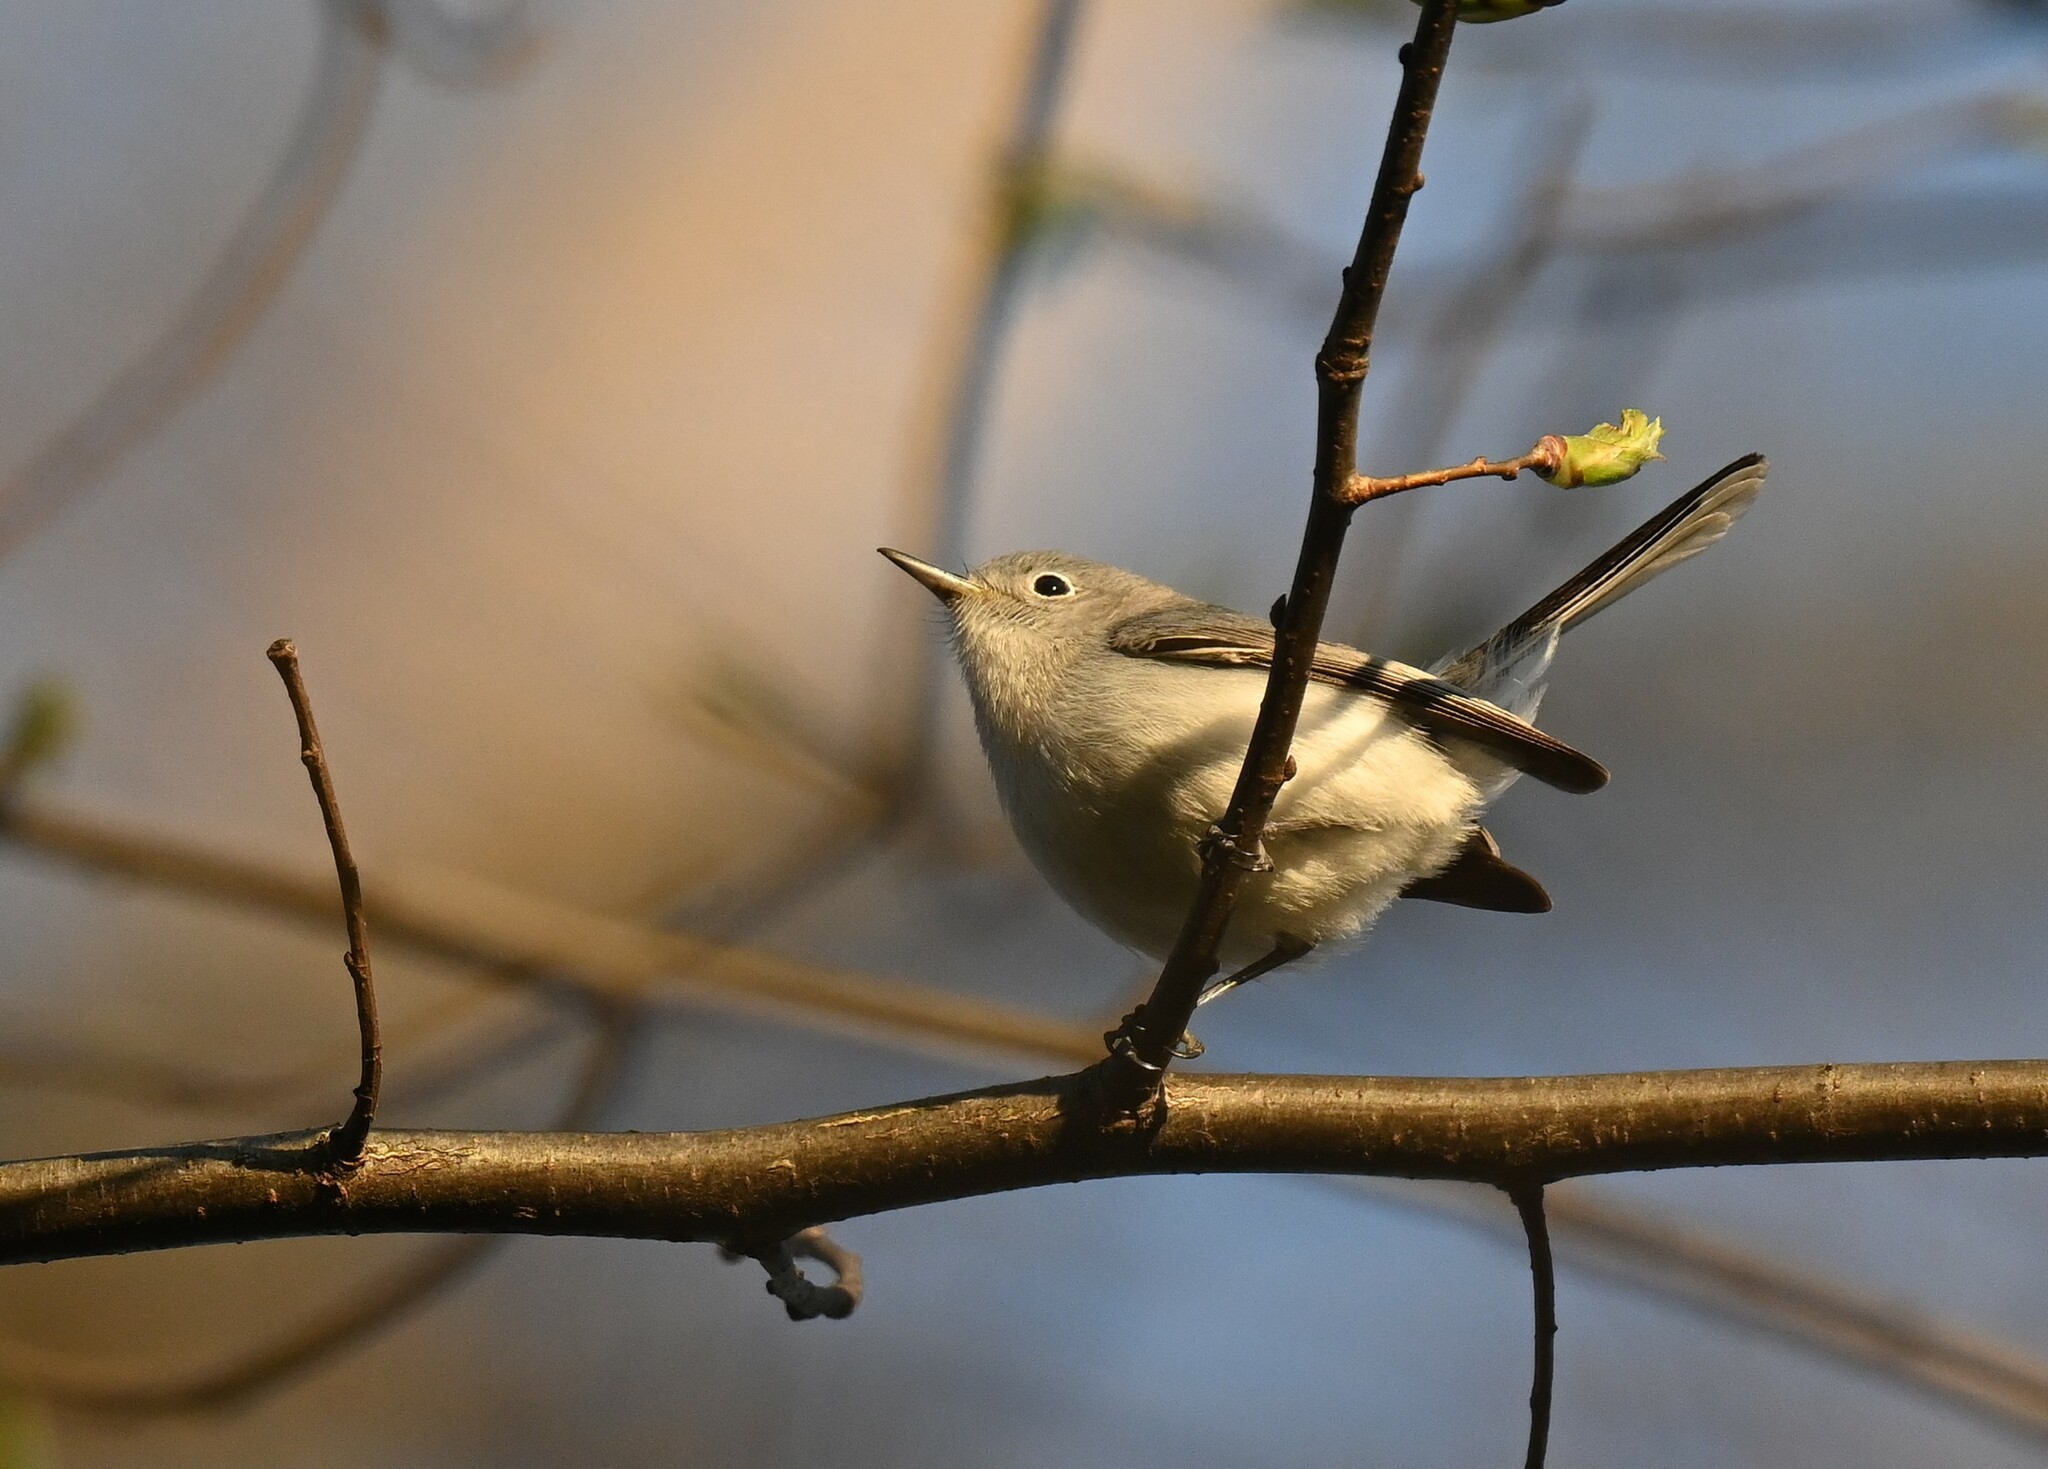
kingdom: Animalia
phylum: Chordata
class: Aves
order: Passeriformes
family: Polioptilidae
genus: Polioptila
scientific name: Polioptila caerulea
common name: Blue-gray gnatcatcher
